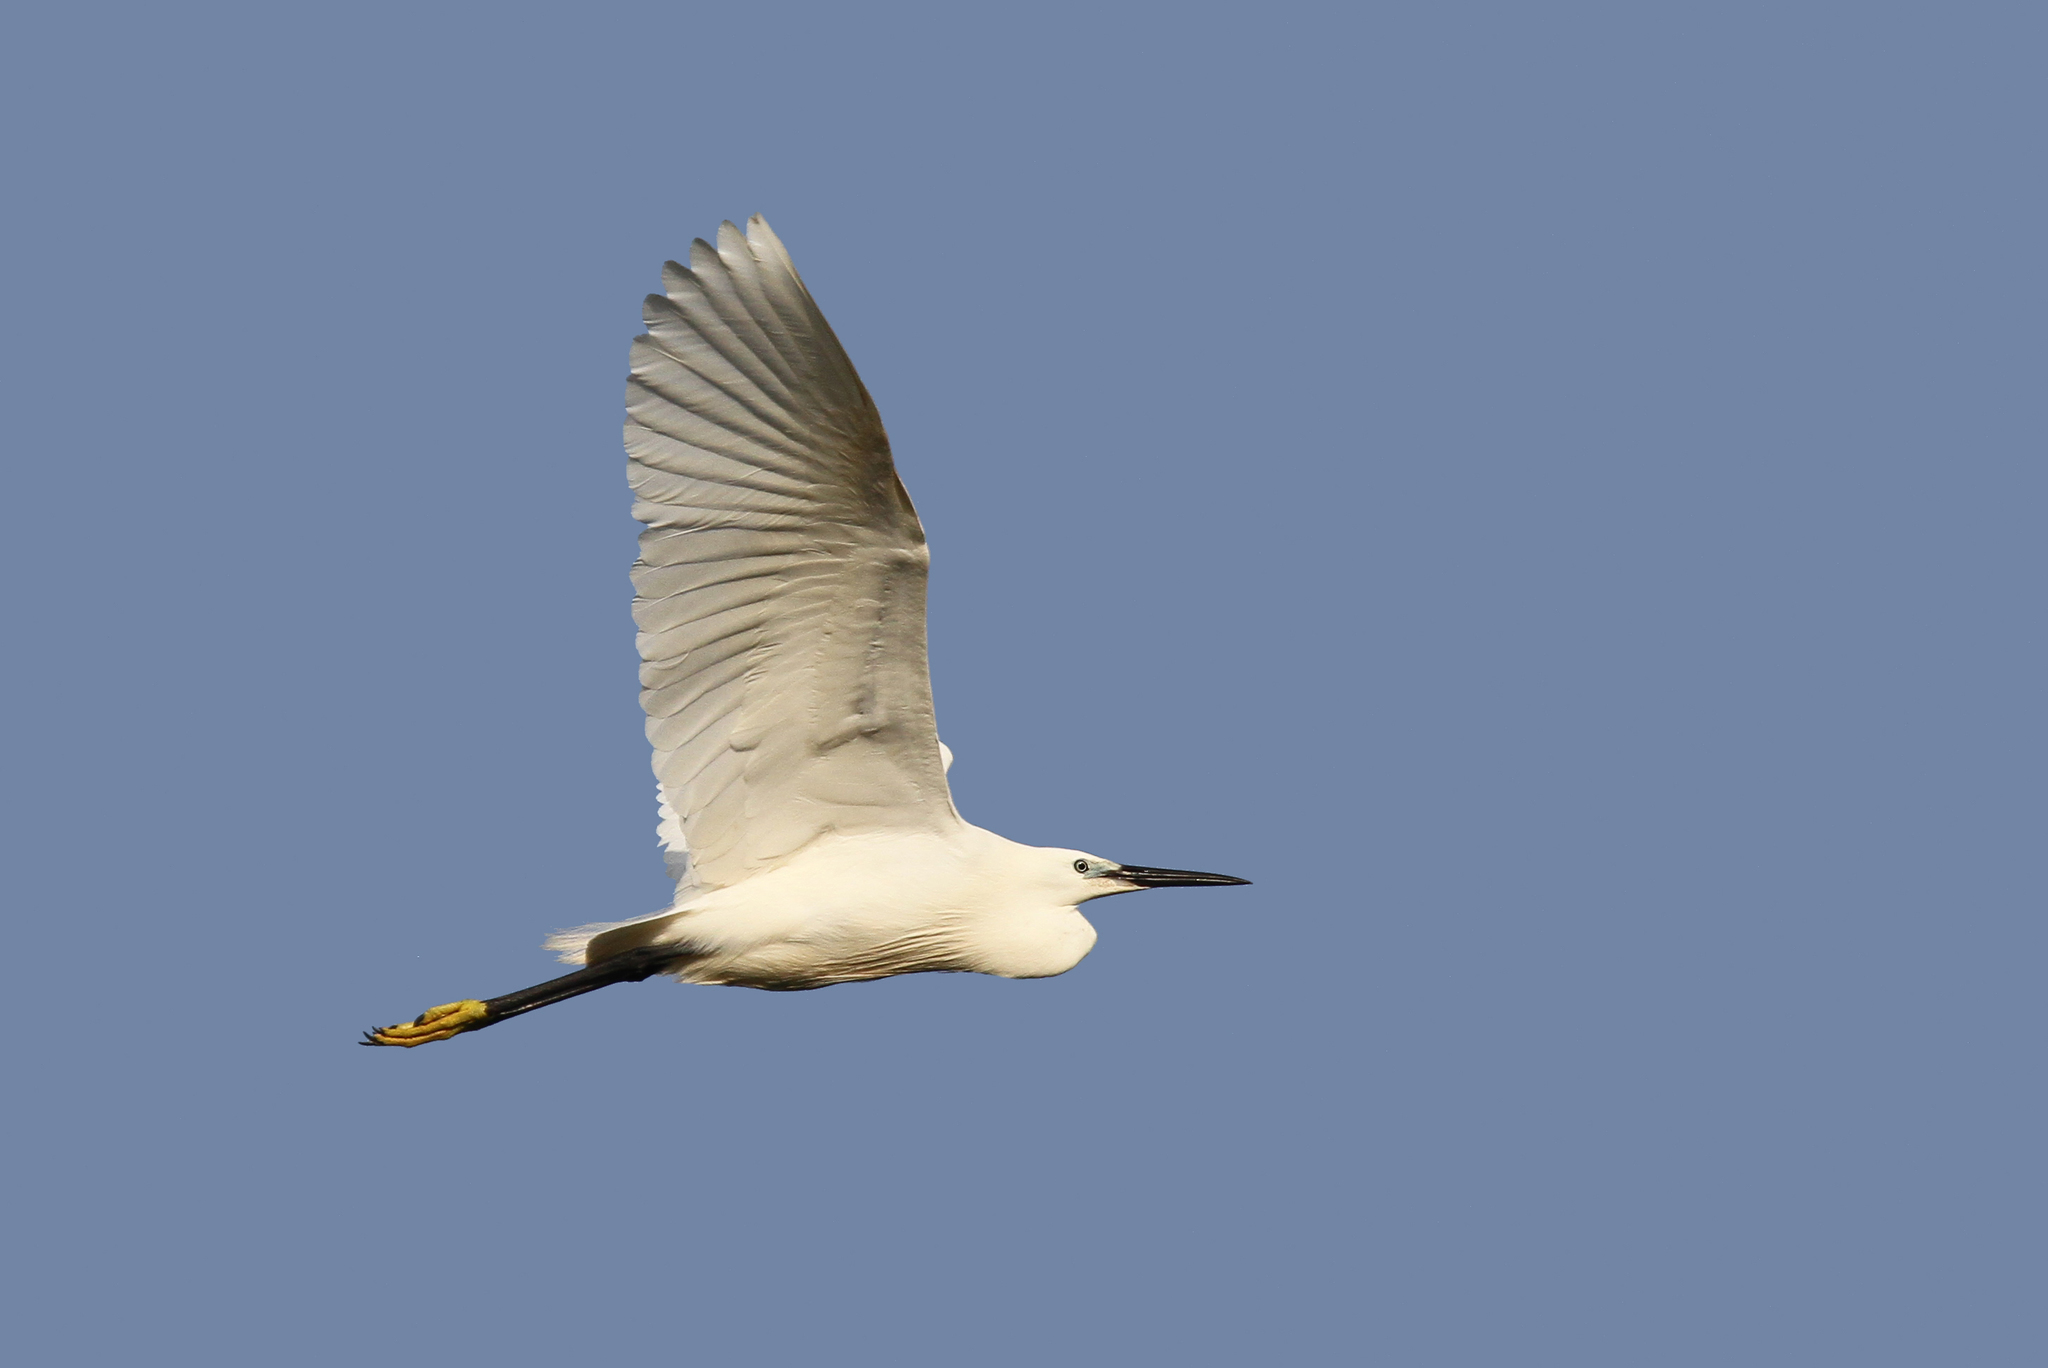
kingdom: Animalia
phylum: Chordata
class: Aves
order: Pelecaniformes
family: Ardeidae
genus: Egretta
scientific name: Egretta garzetta
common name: Little egret
